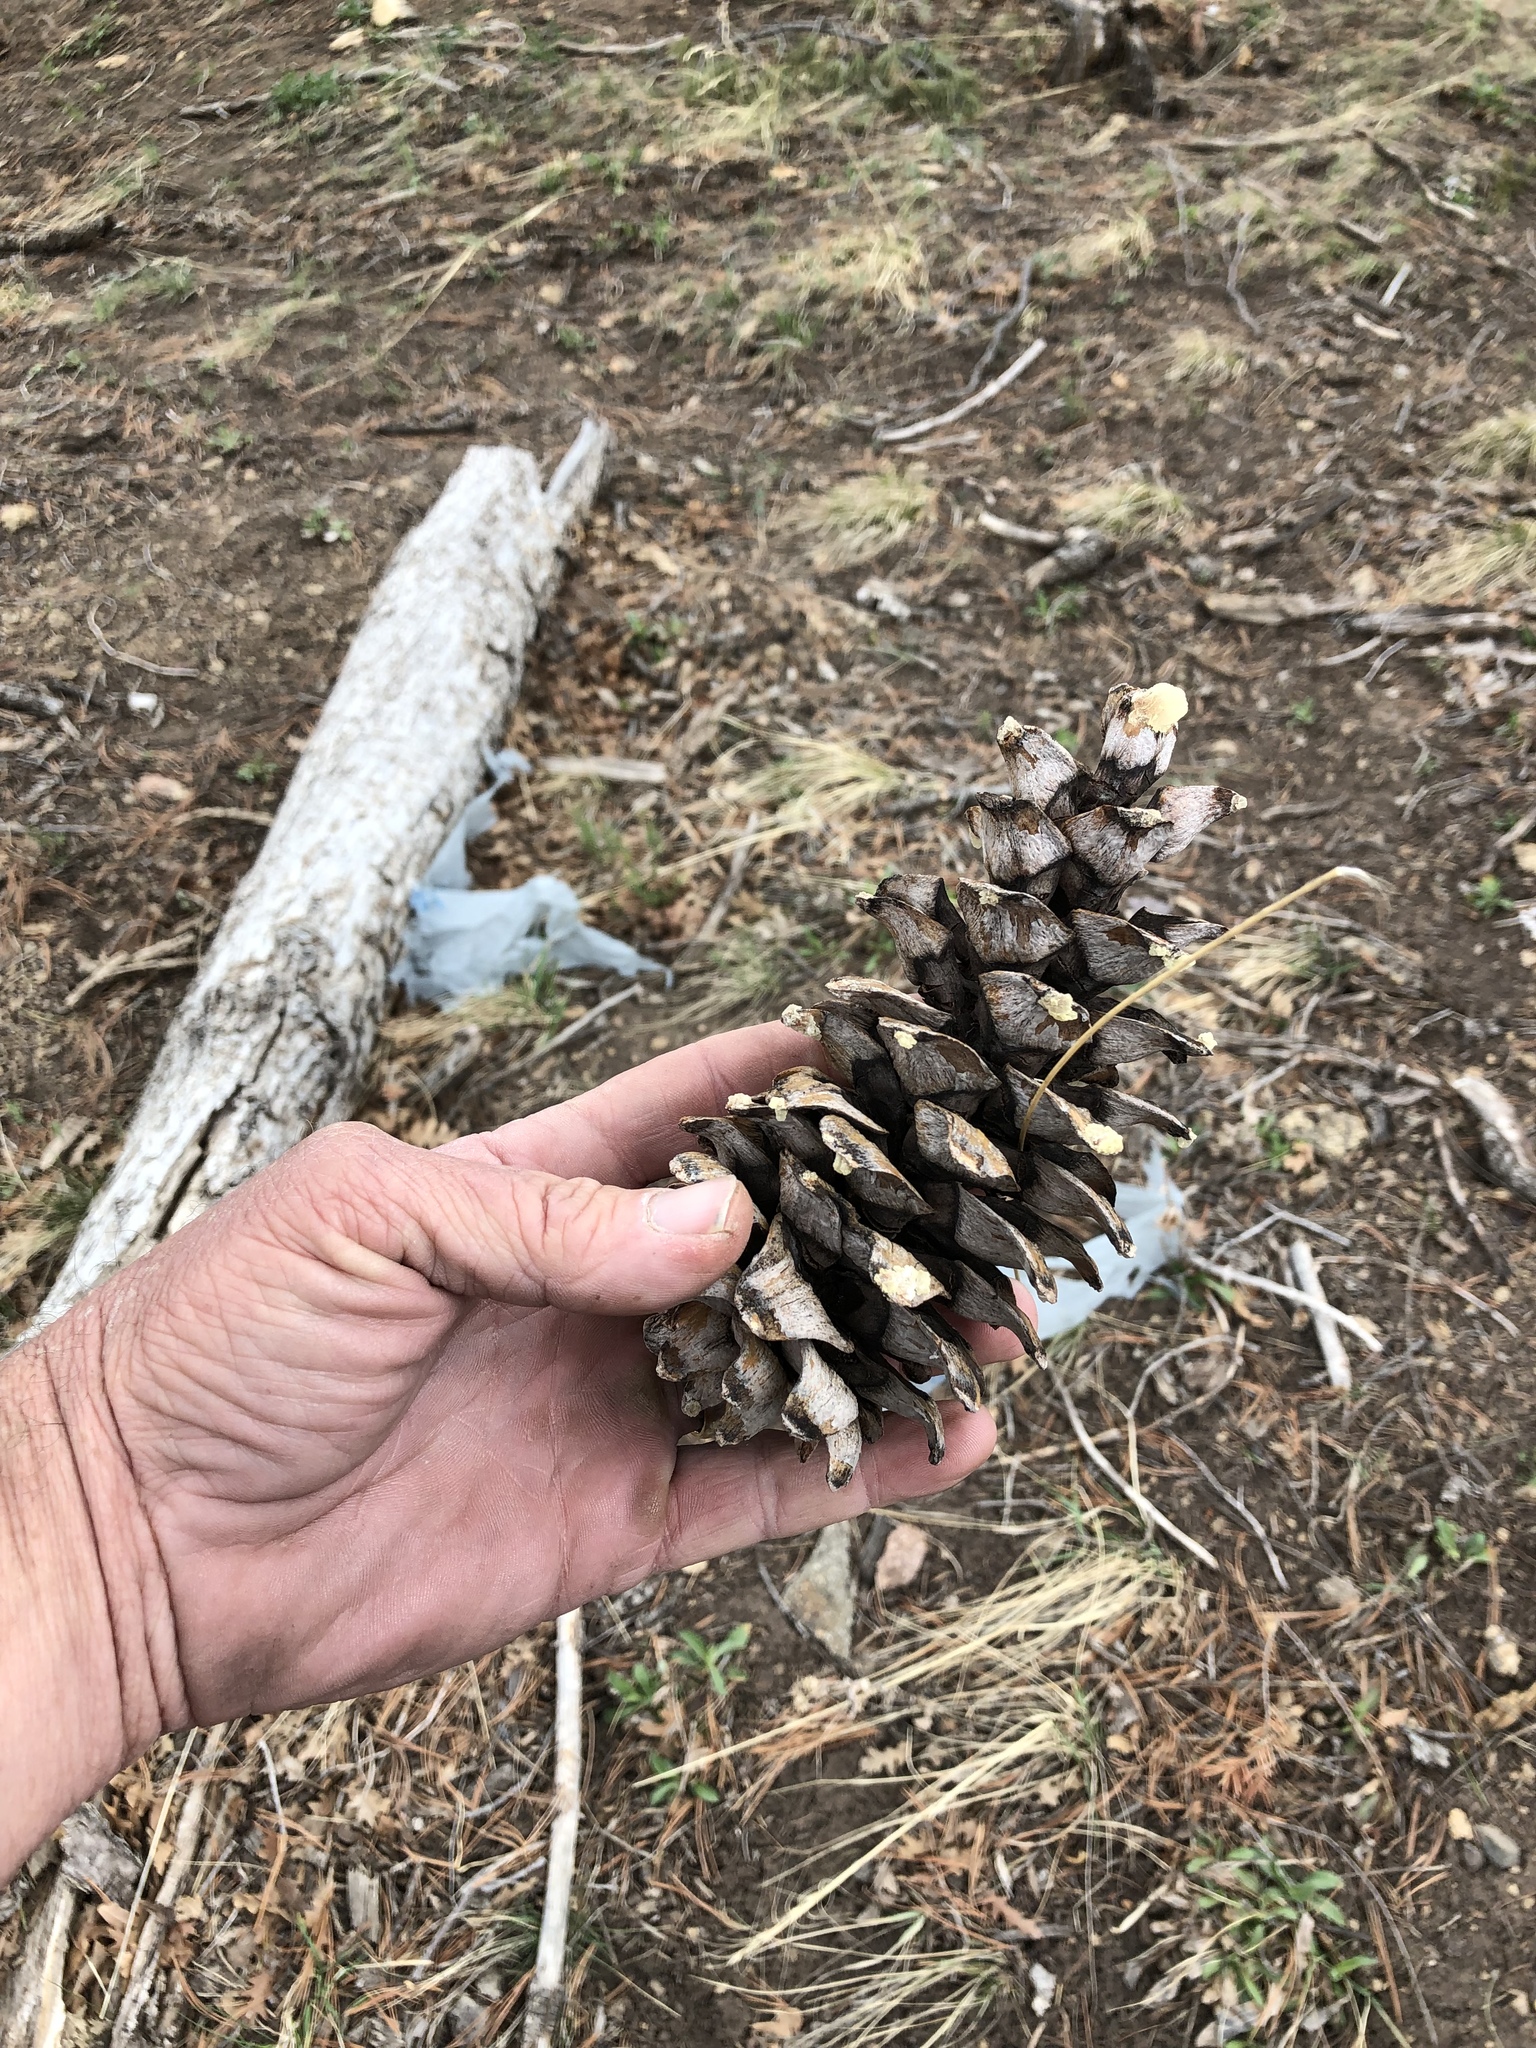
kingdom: Plantae
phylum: Tracheophyta
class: Pinopsida
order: Pinales
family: Pinaceae
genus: Pinus
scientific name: Pinus strobiformis
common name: Southwestern white pine
